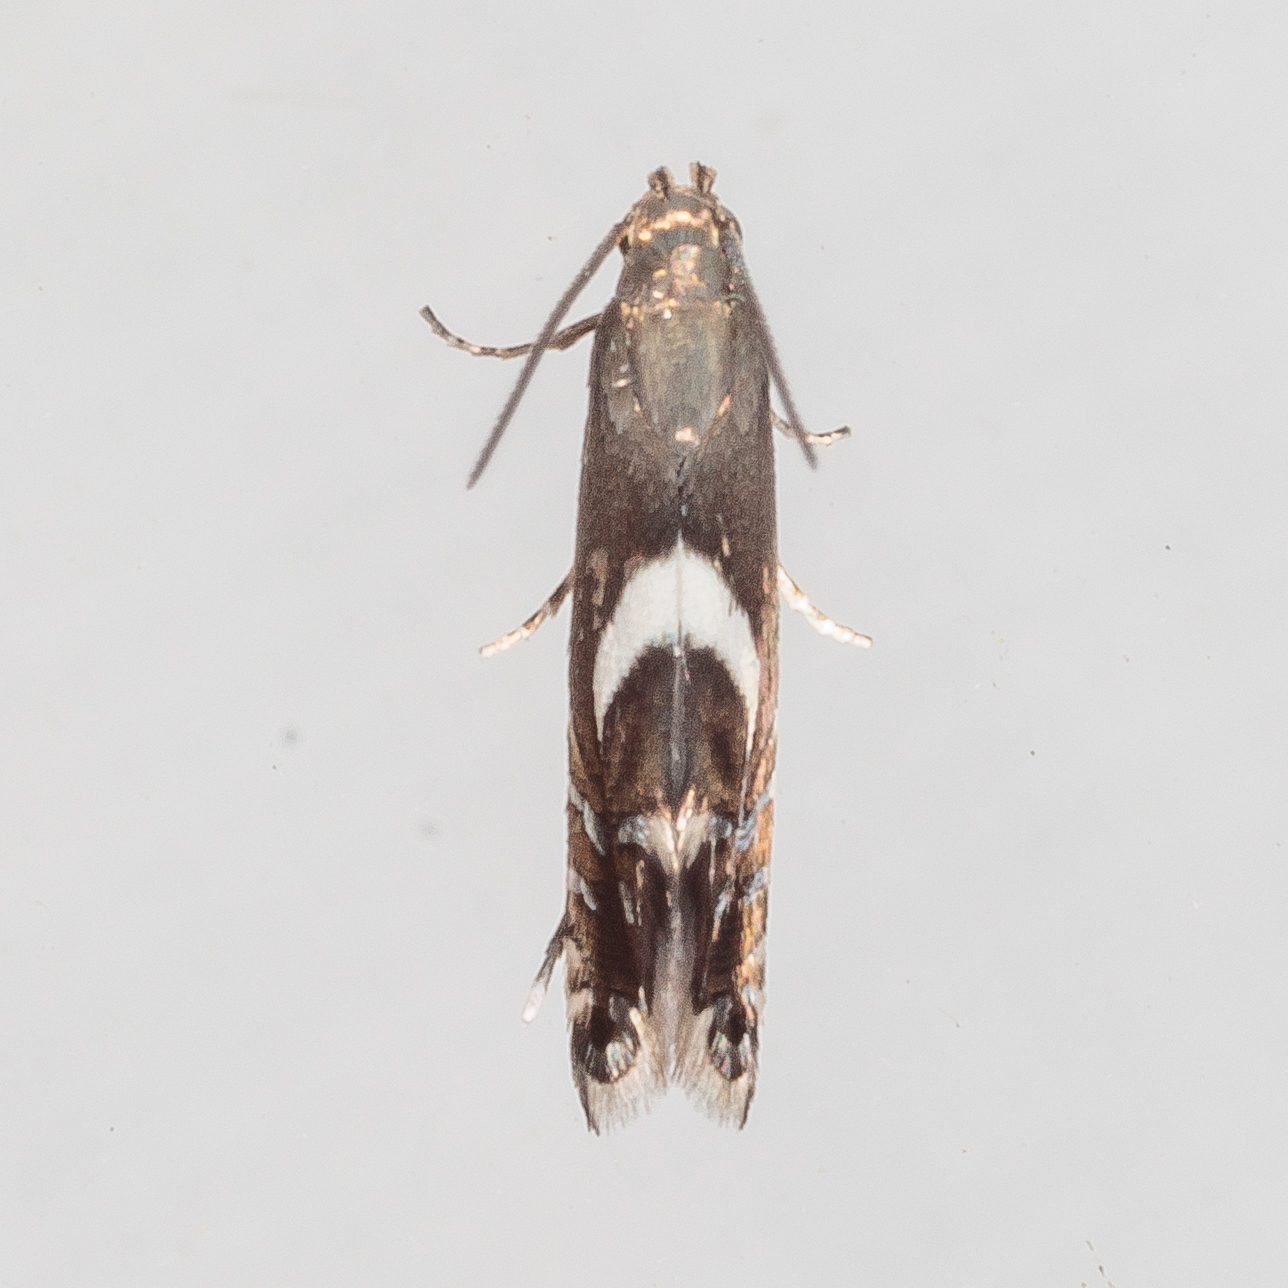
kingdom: Animalia
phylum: Arthropoda
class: Insecta
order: Lepidoptera
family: Glyphipterigidae
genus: Glyphipterix
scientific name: Glyphipterix Diploschizia impigritella
